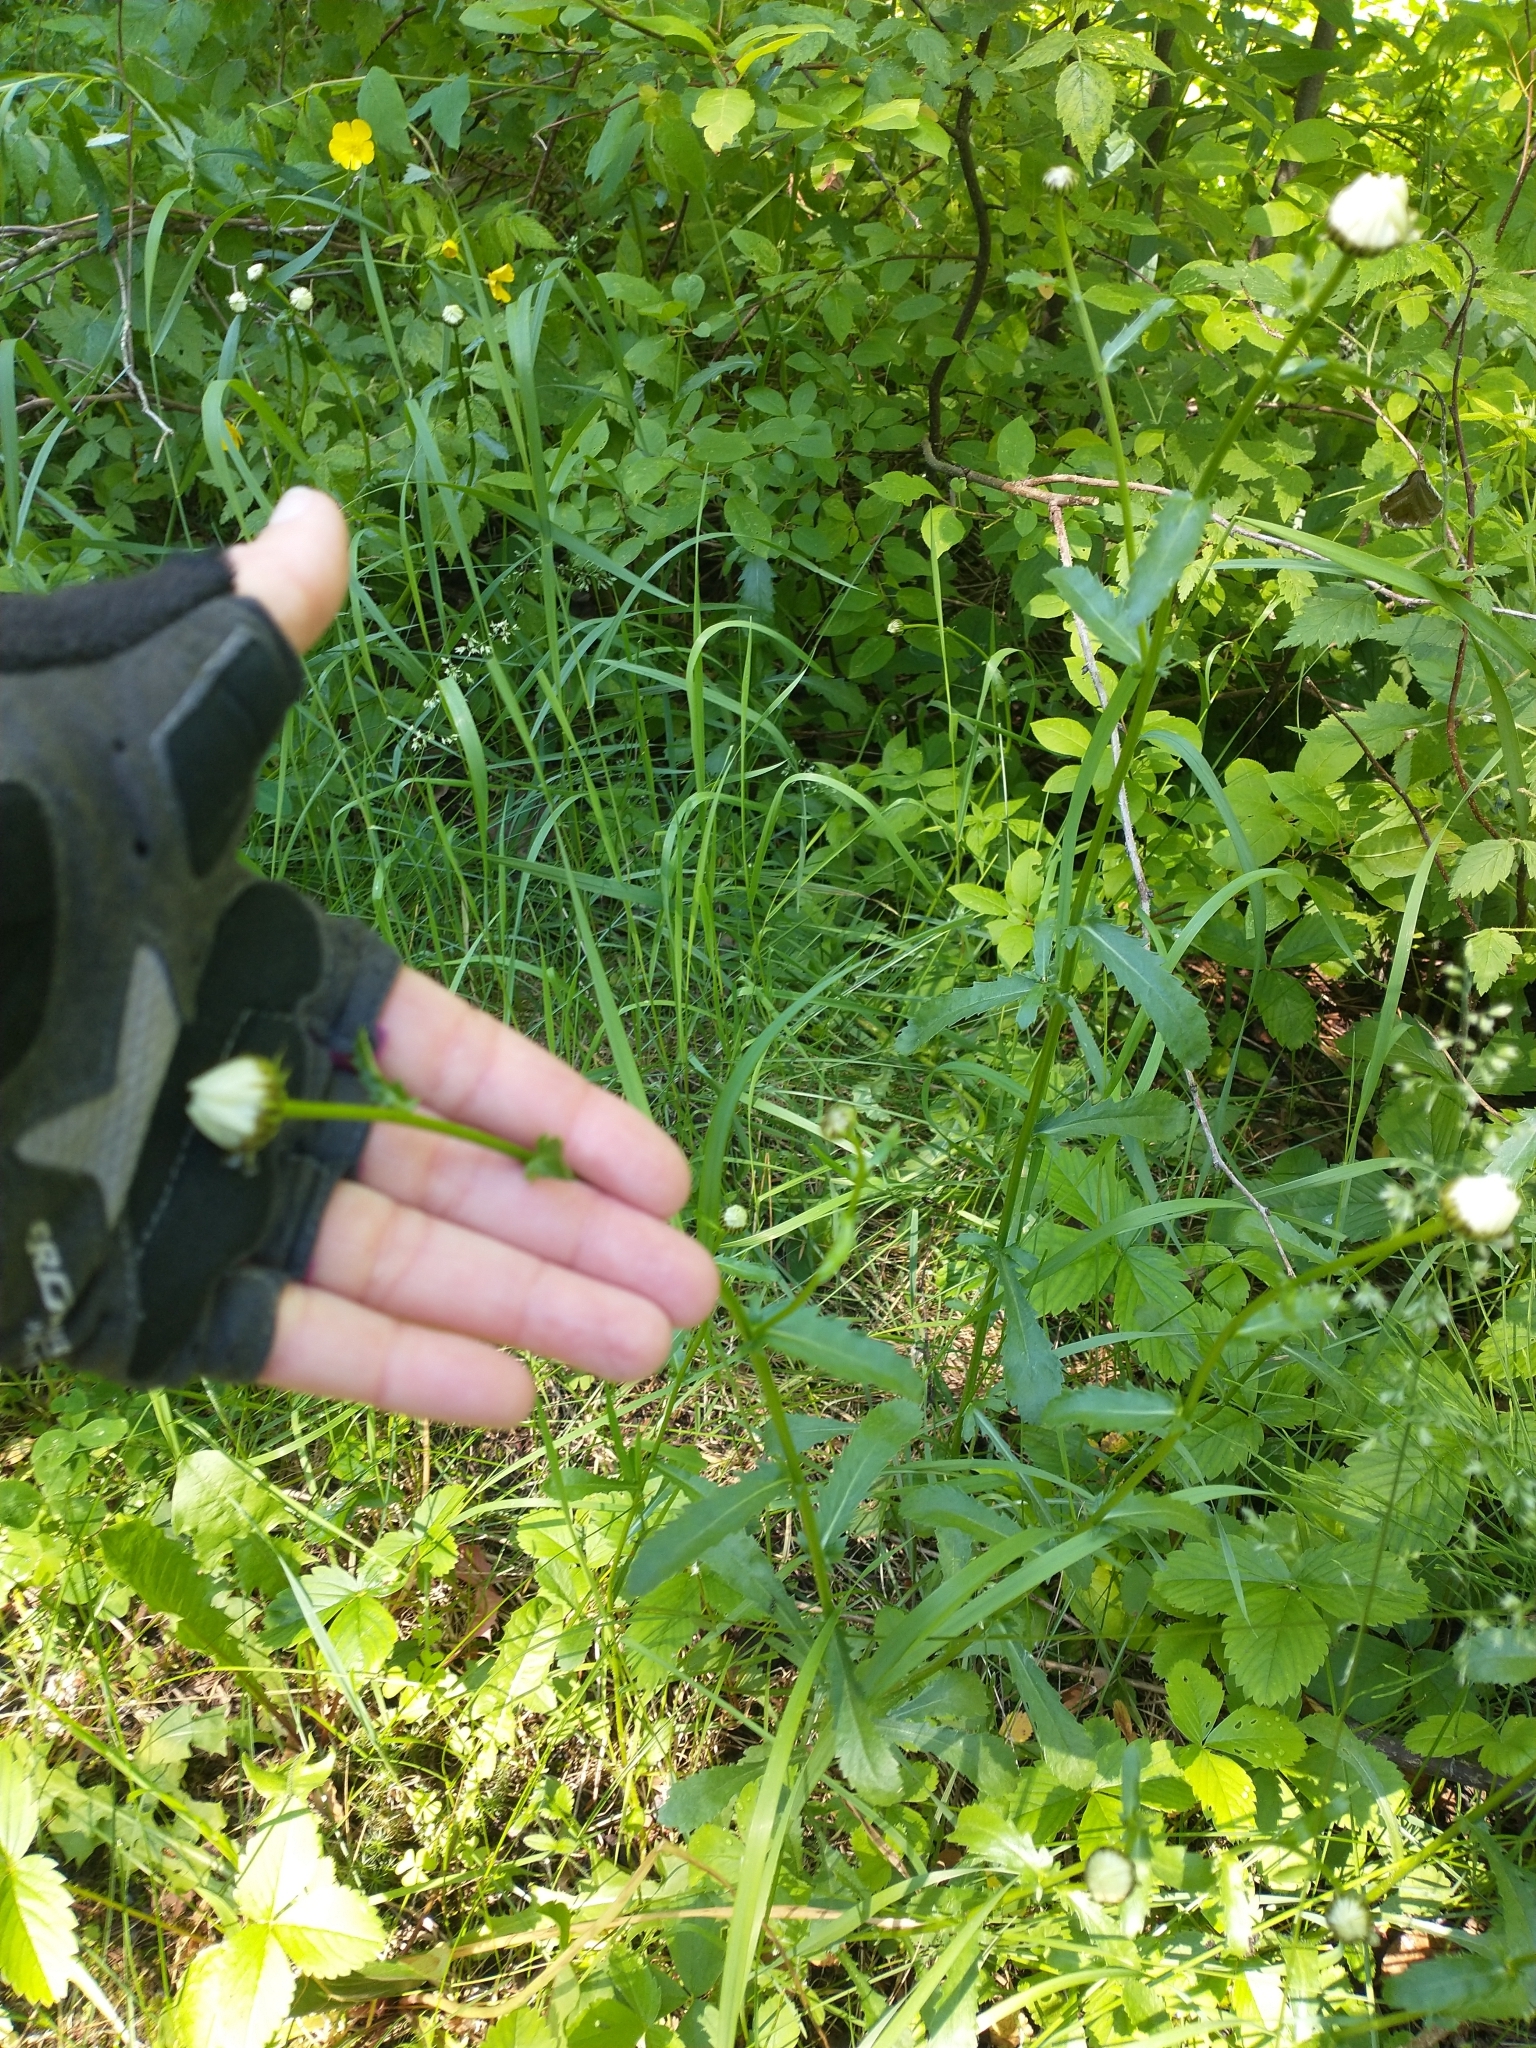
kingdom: Plantae
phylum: Tracheophyta
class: Magnoliopsida
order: Asterales
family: Asteraceae
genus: Leucanthemum
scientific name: Leucanthemum vulgare
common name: Oxeye daisy
